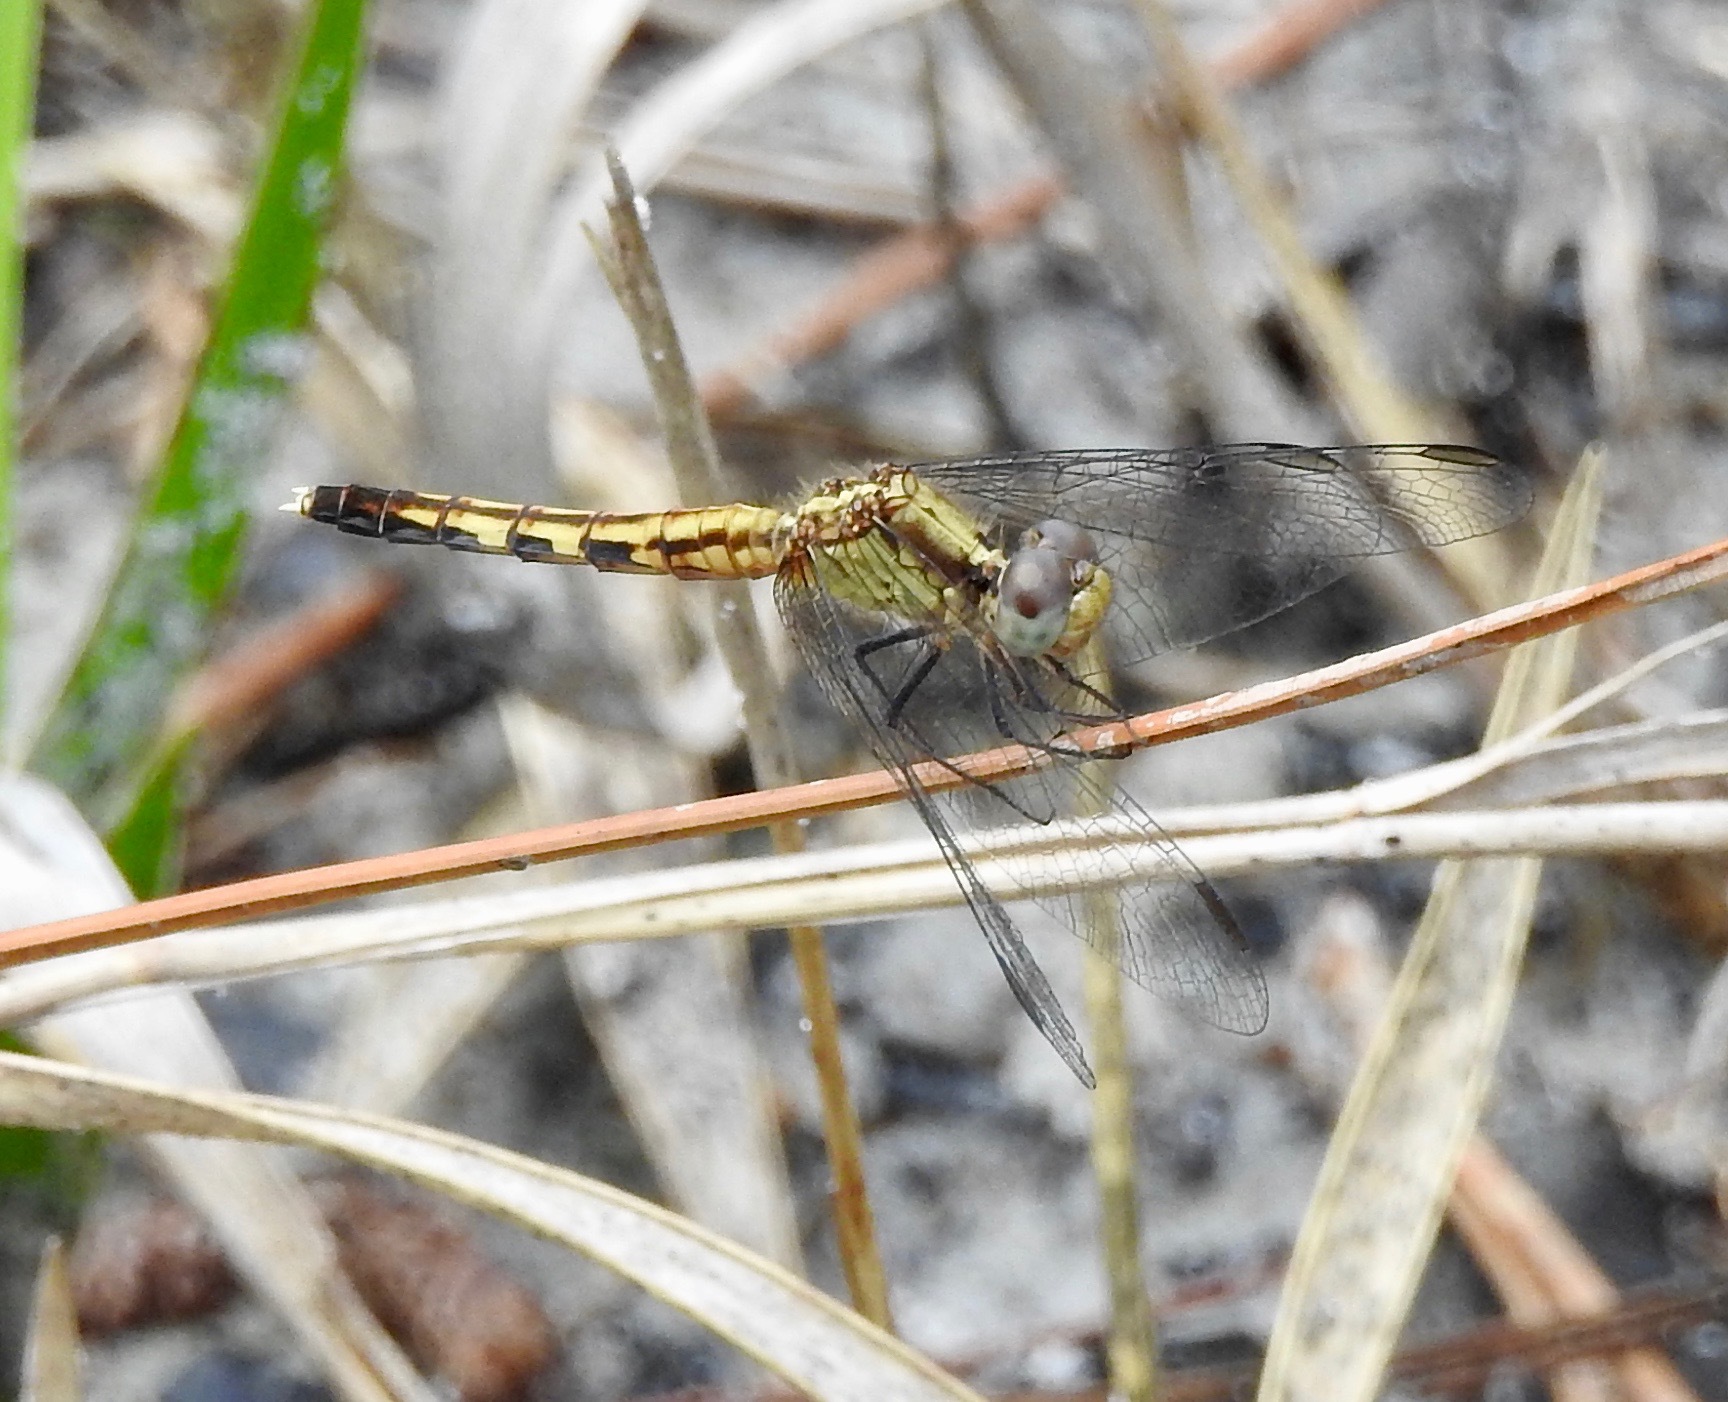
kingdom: Animalia
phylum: Arthropoda
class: Insecta
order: Odonata
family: Libellulidae
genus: Erythrodiplax
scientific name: Erythrodiplax minuscula
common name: Little blue dragonlet
